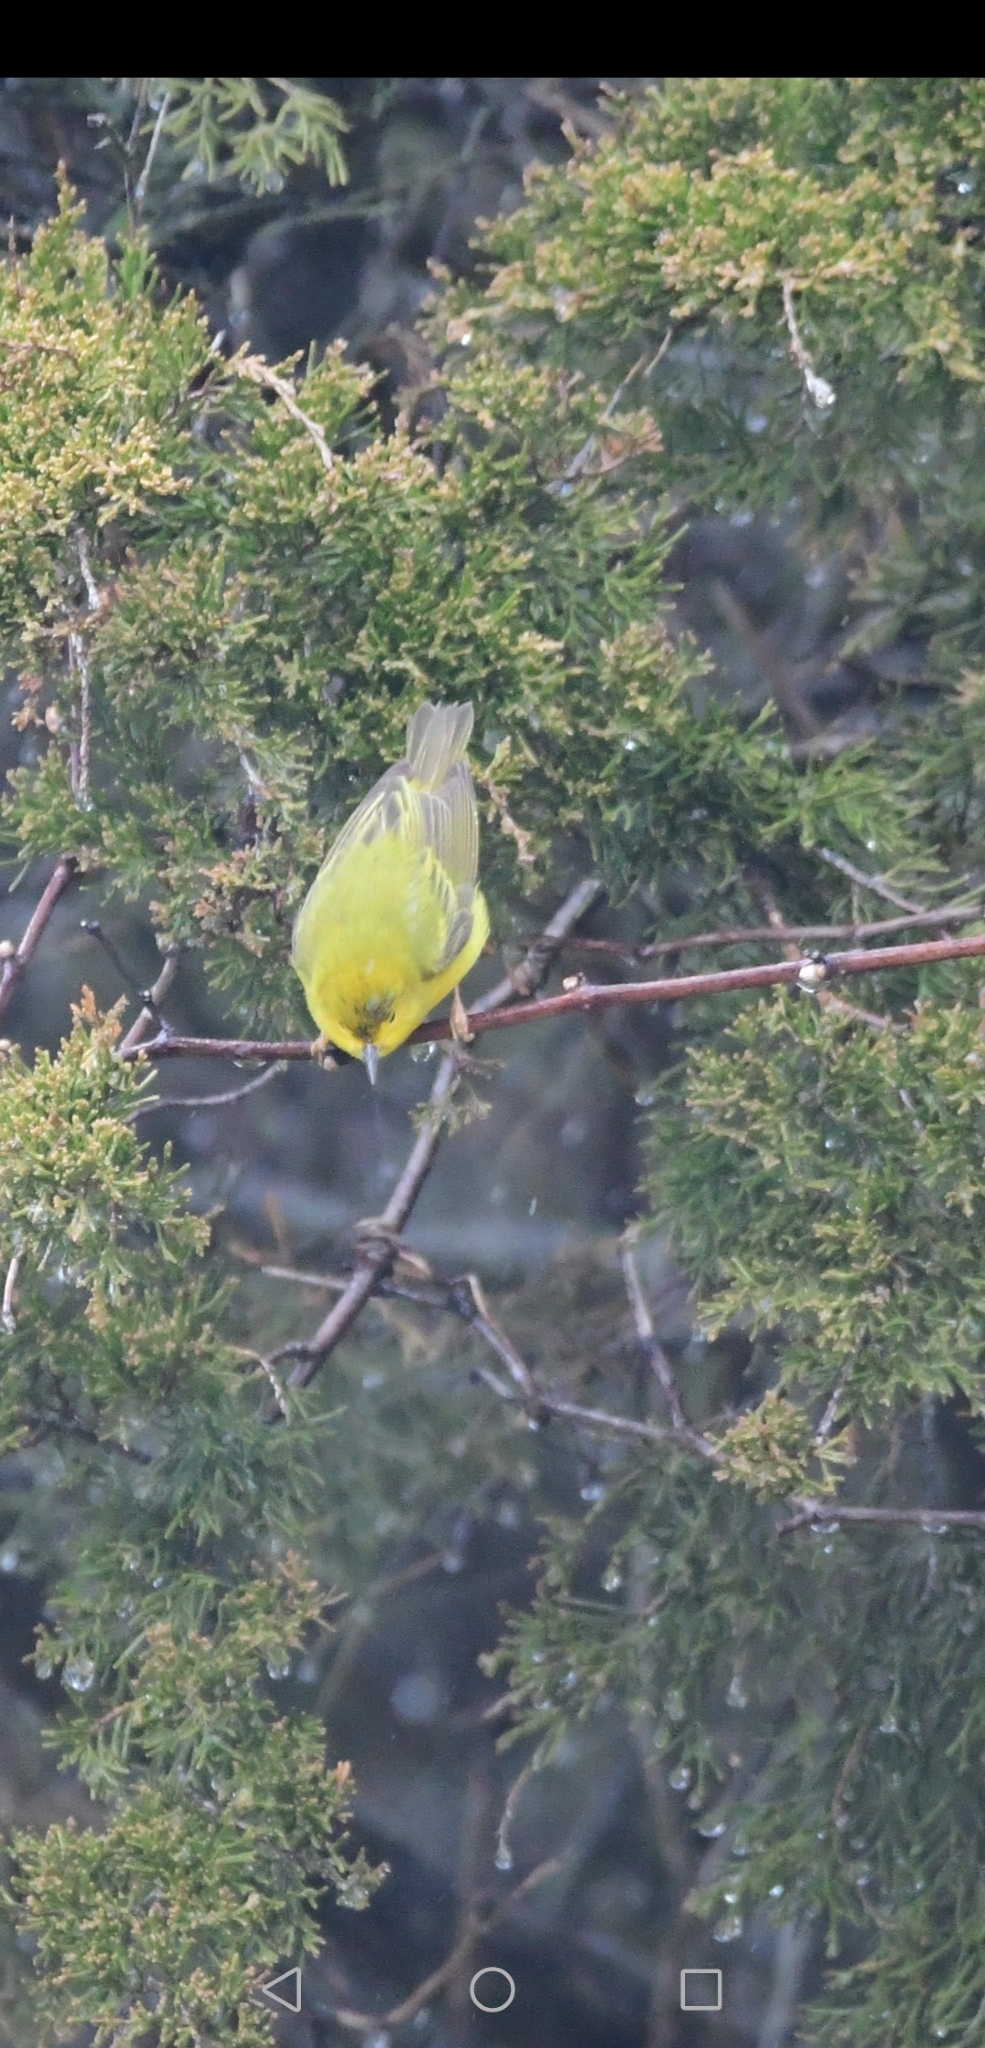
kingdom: Animalia
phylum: Chordata
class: Aves
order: Passeriformes
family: Parulidae
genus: Setophaga
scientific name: Setophaga petechia
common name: Yellow warbler
